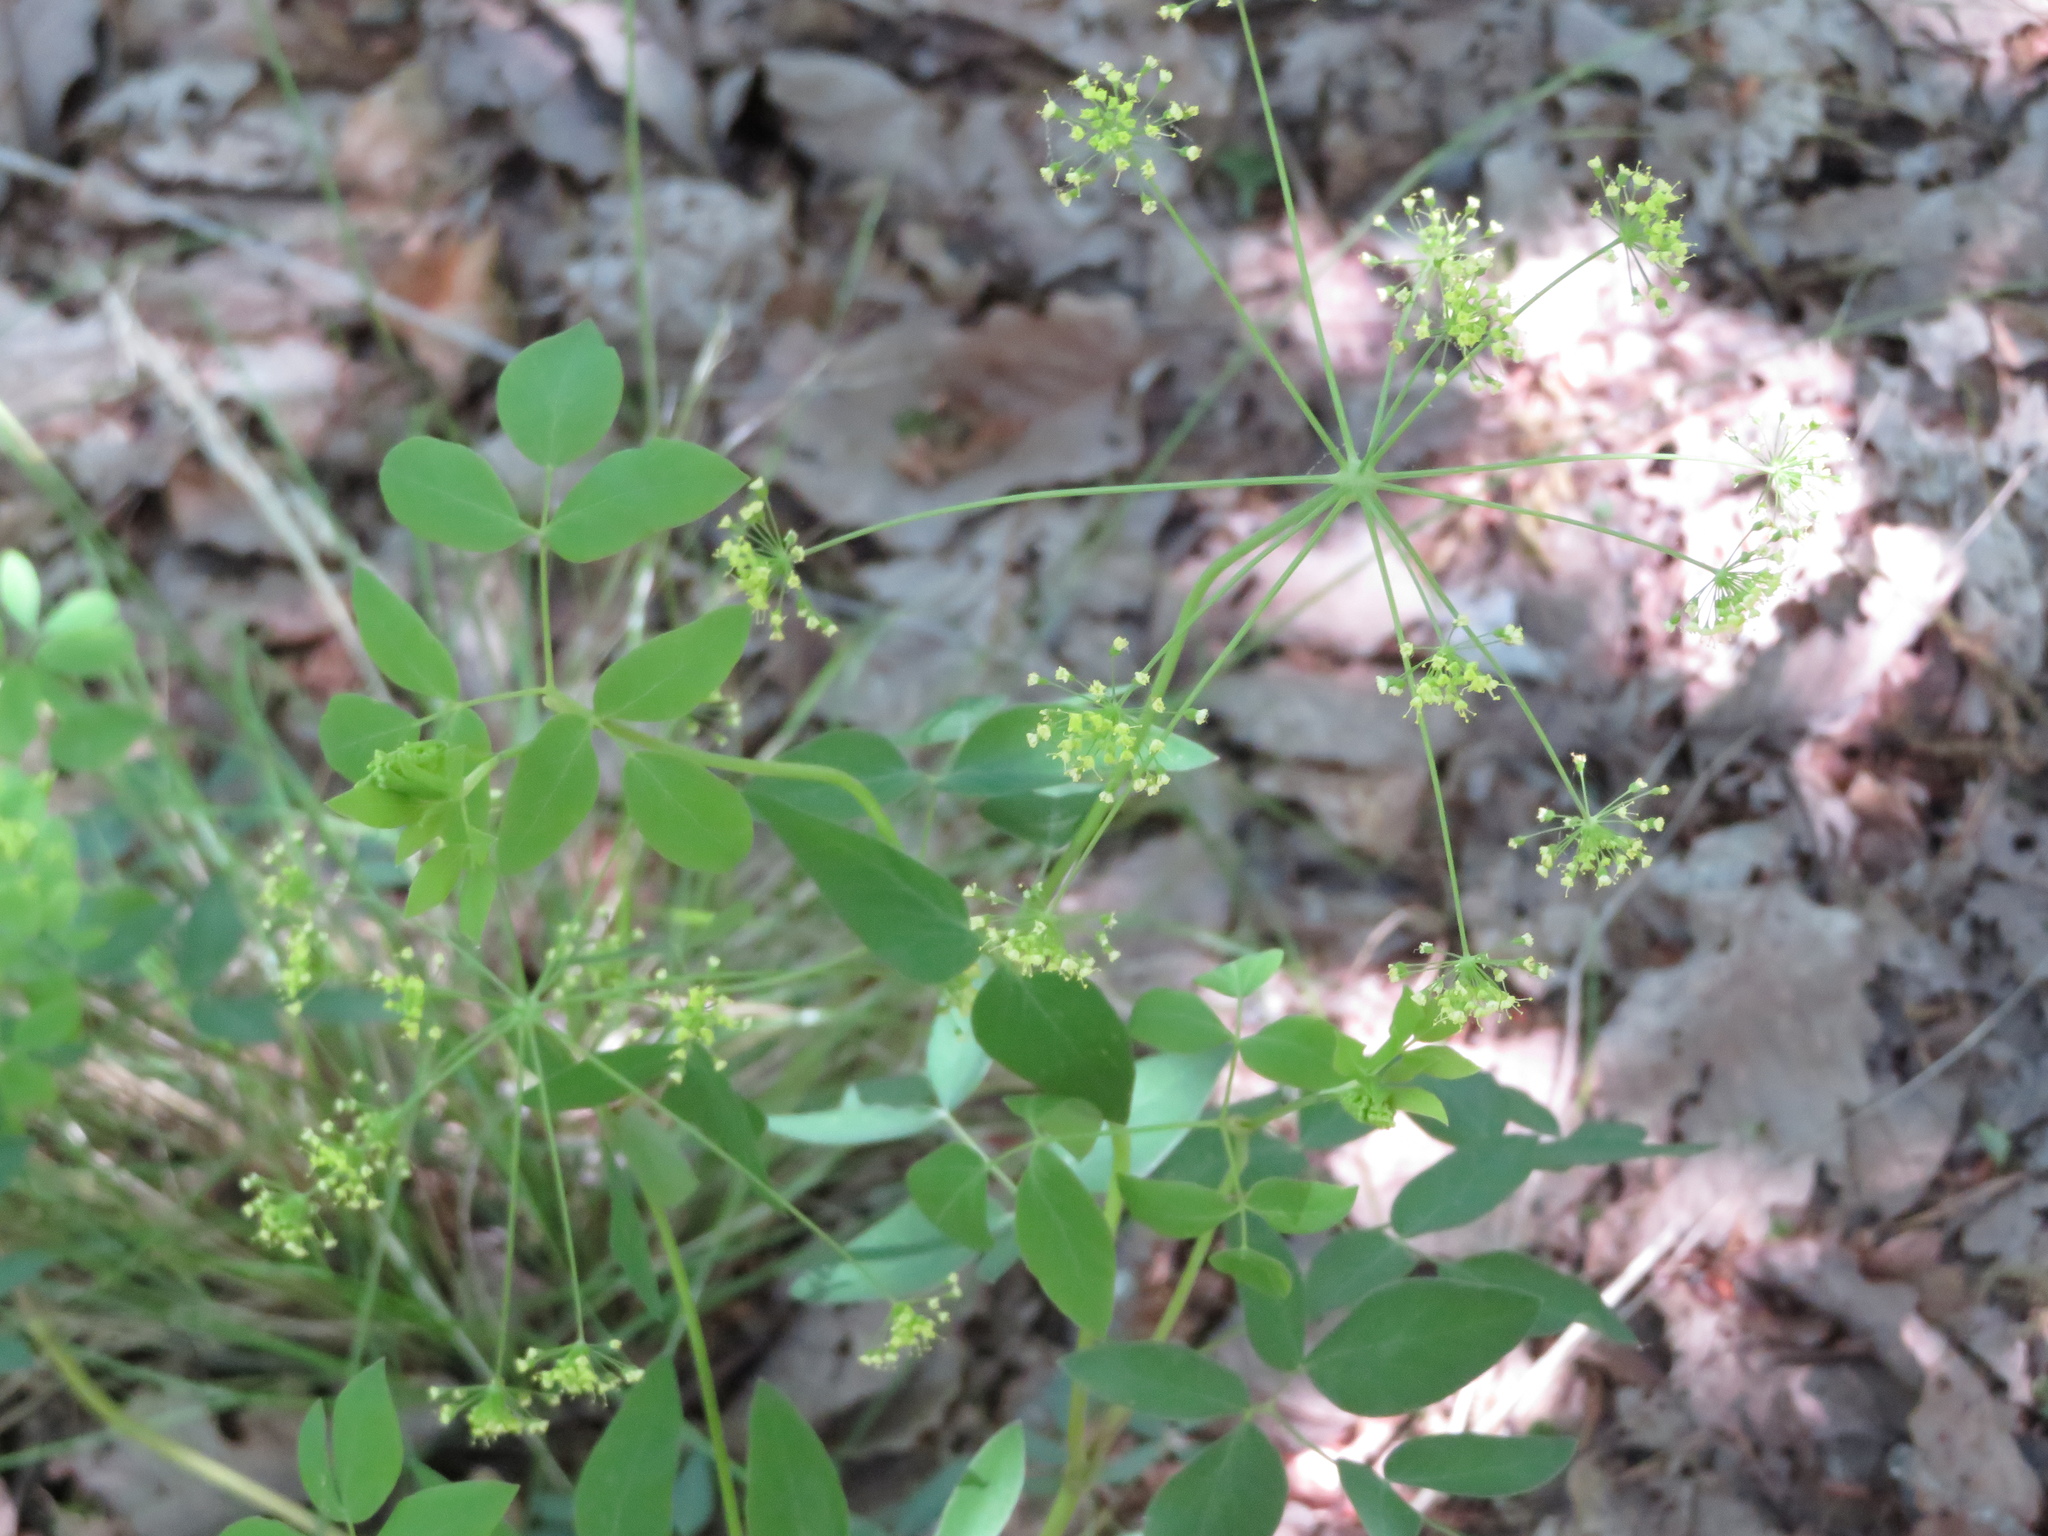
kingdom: Plantae
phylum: Tracheophyta
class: Magnoliopsida
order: Apiales
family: Apiaceae
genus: Taenidia
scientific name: Taenidia integerrima
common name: Golden alexander
